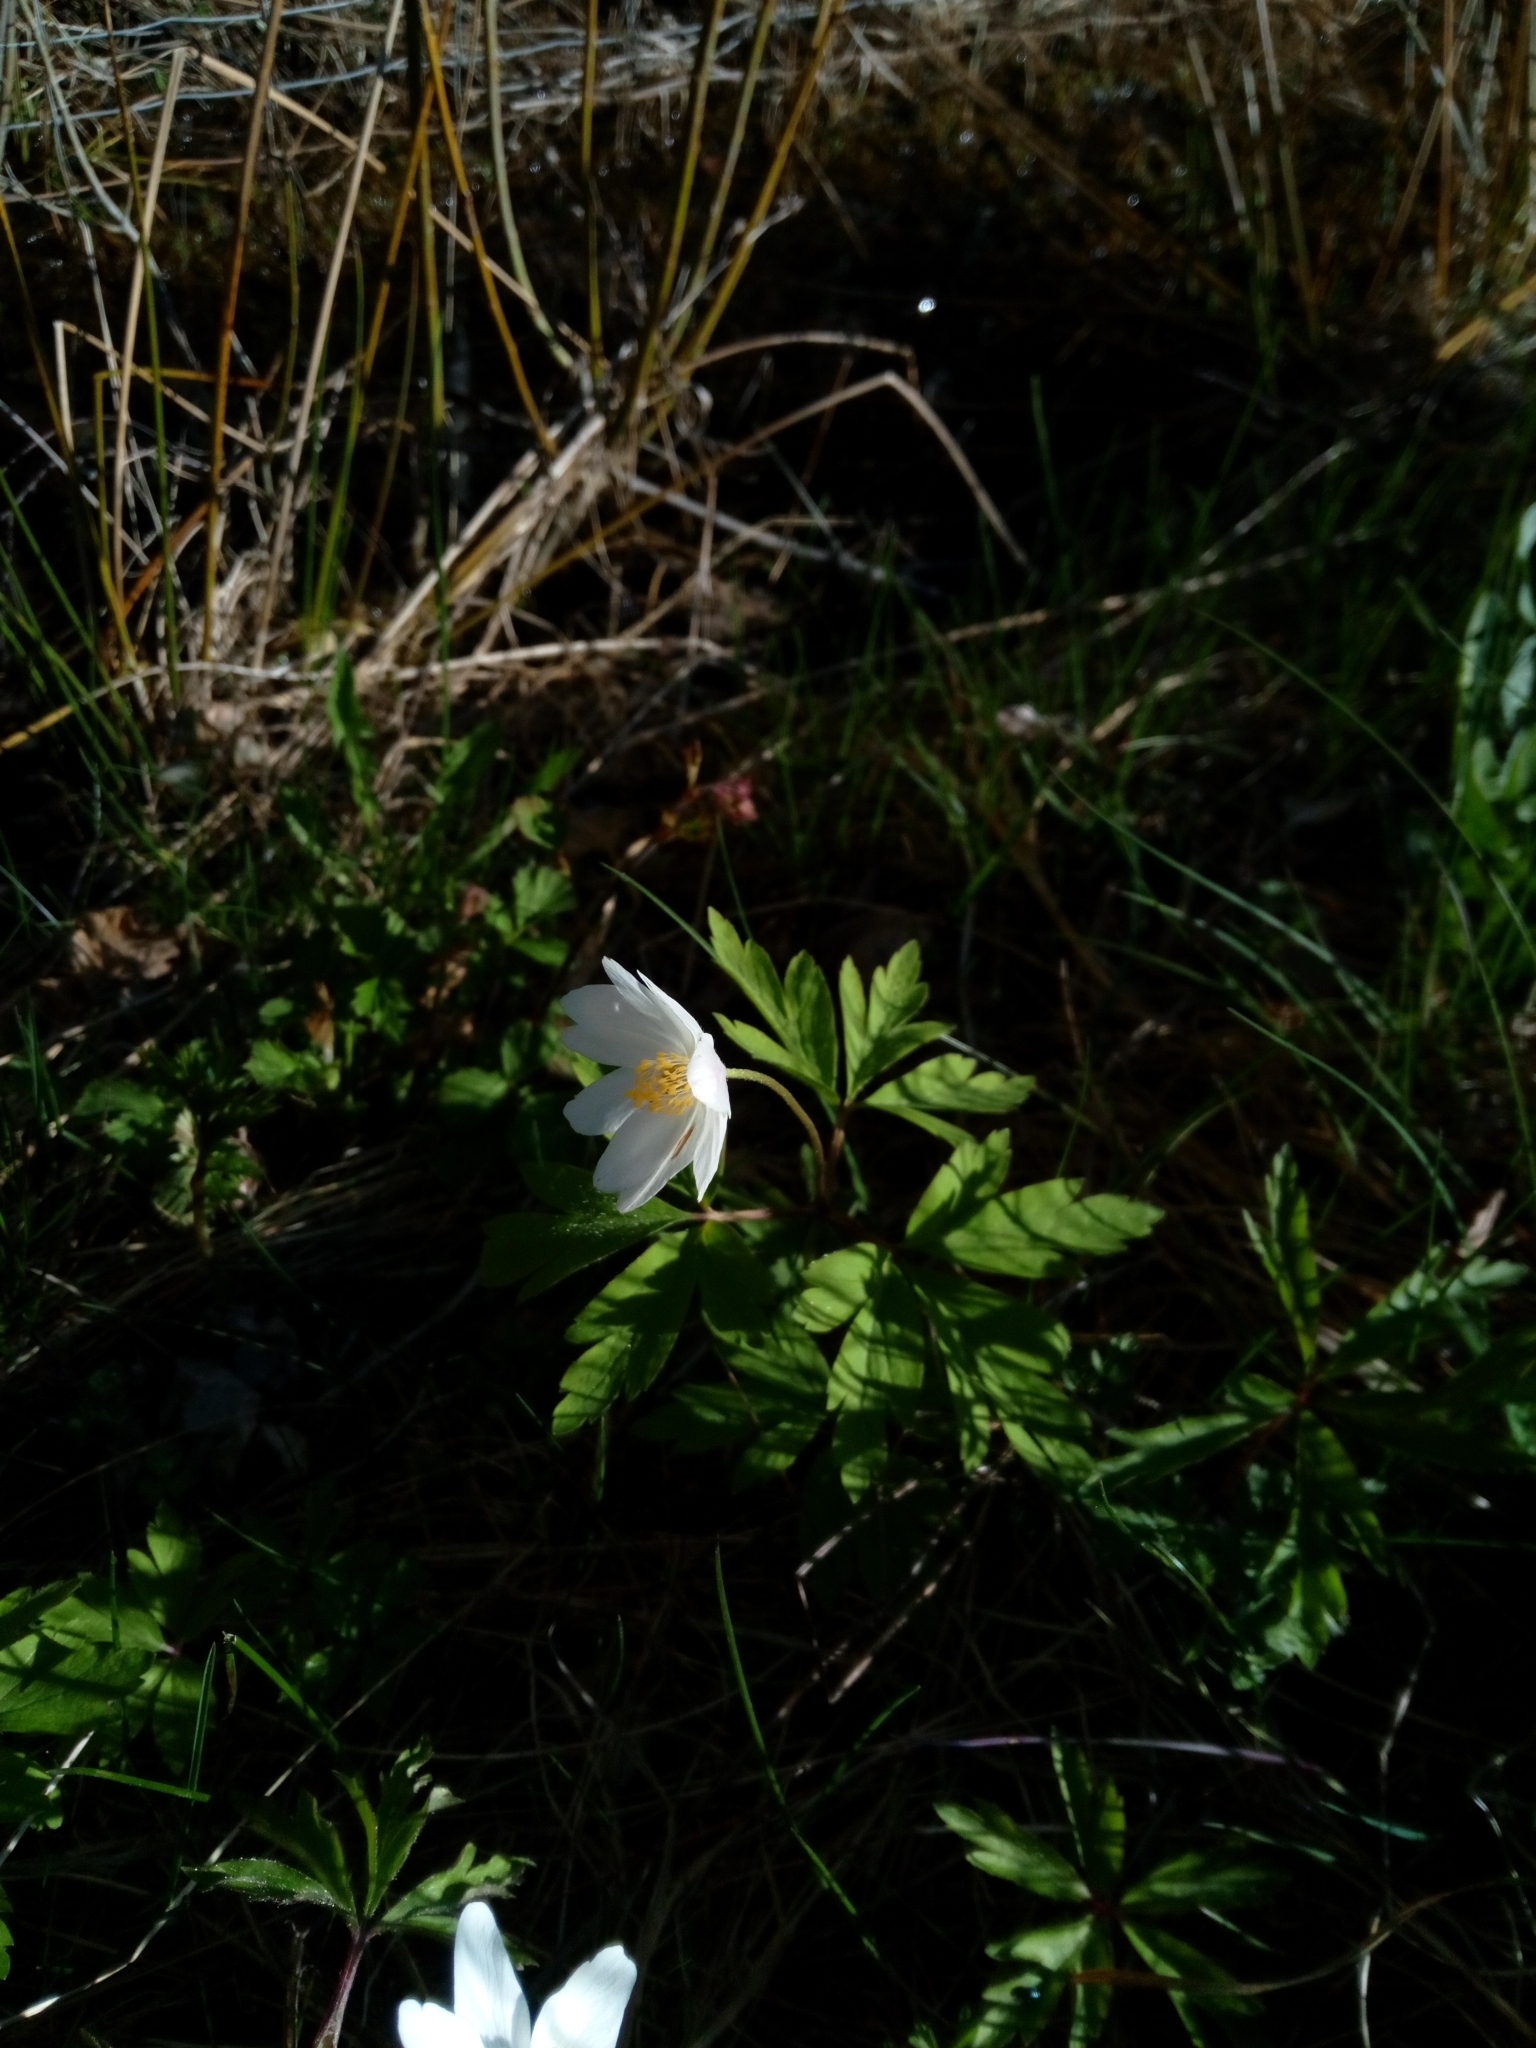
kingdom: Plantae
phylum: Tracheophyta
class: Magnoliopsida
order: Ranunculales
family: Ranunculaceae
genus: Anemone
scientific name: Anemone nemorosa
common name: Wood anemone
